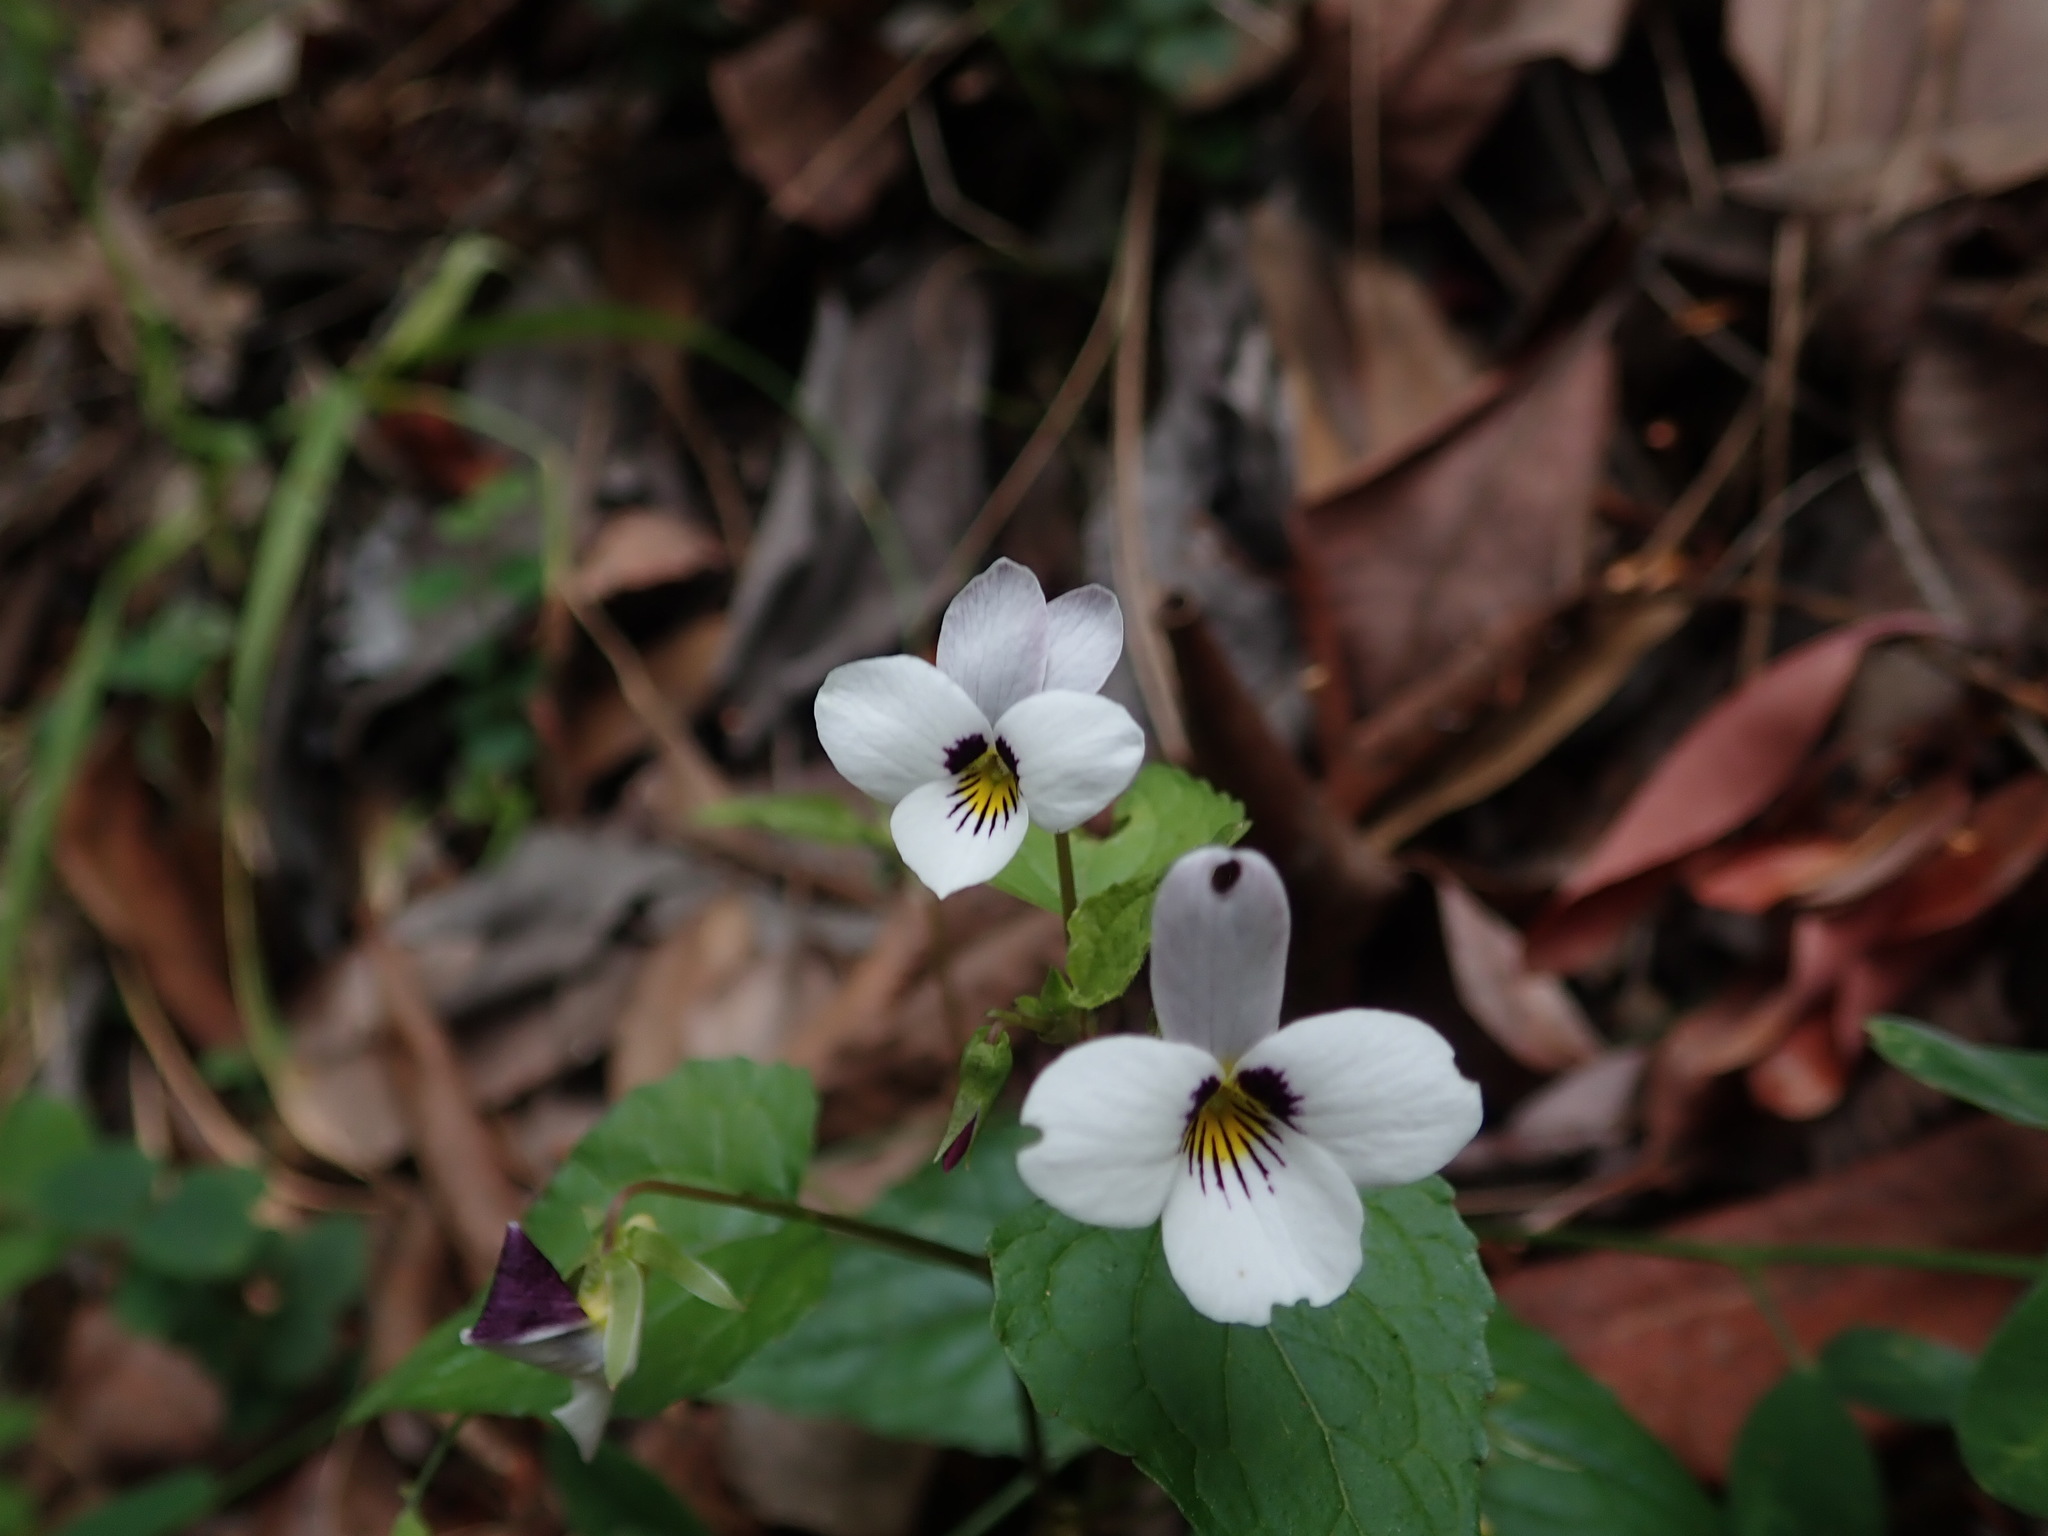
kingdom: Plantae
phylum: Tracheophyta
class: Magnoliopsida
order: Malpighiales
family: Violaceae
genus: Viola
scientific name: Viola ocellata
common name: Western heart's ease
